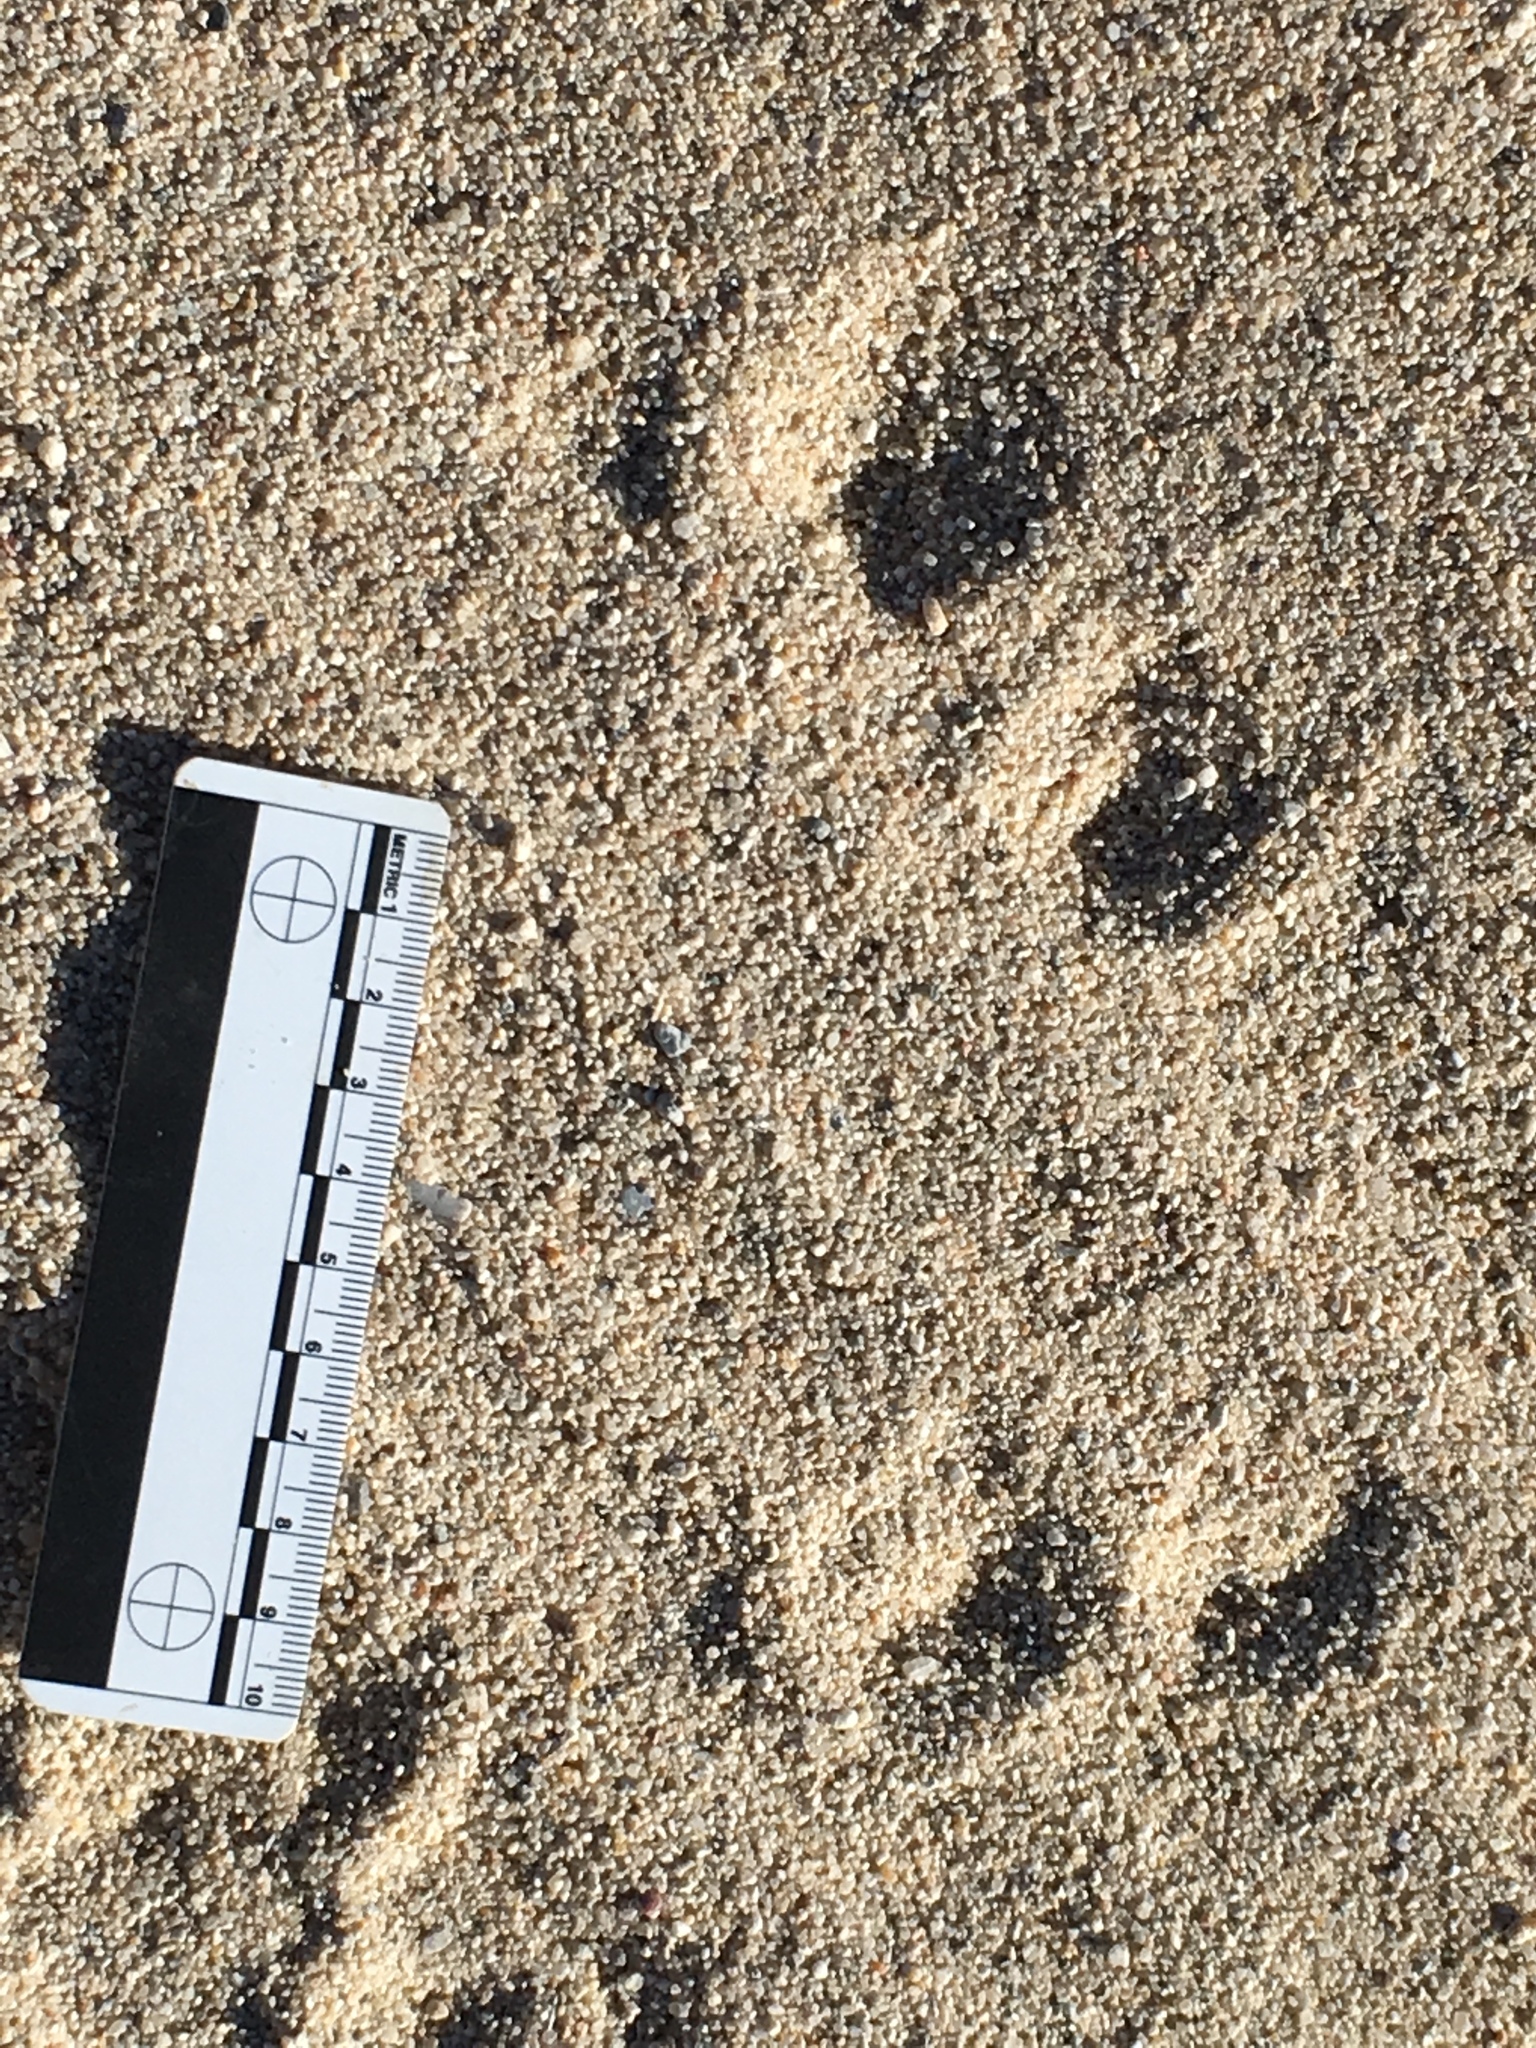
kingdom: Animalia
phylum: Chordata
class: Mammalia
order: Lagomorpha
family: Leporidae
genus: Sylvilagus
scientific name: Sylvilagus audubonii
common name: Desert cottontail
